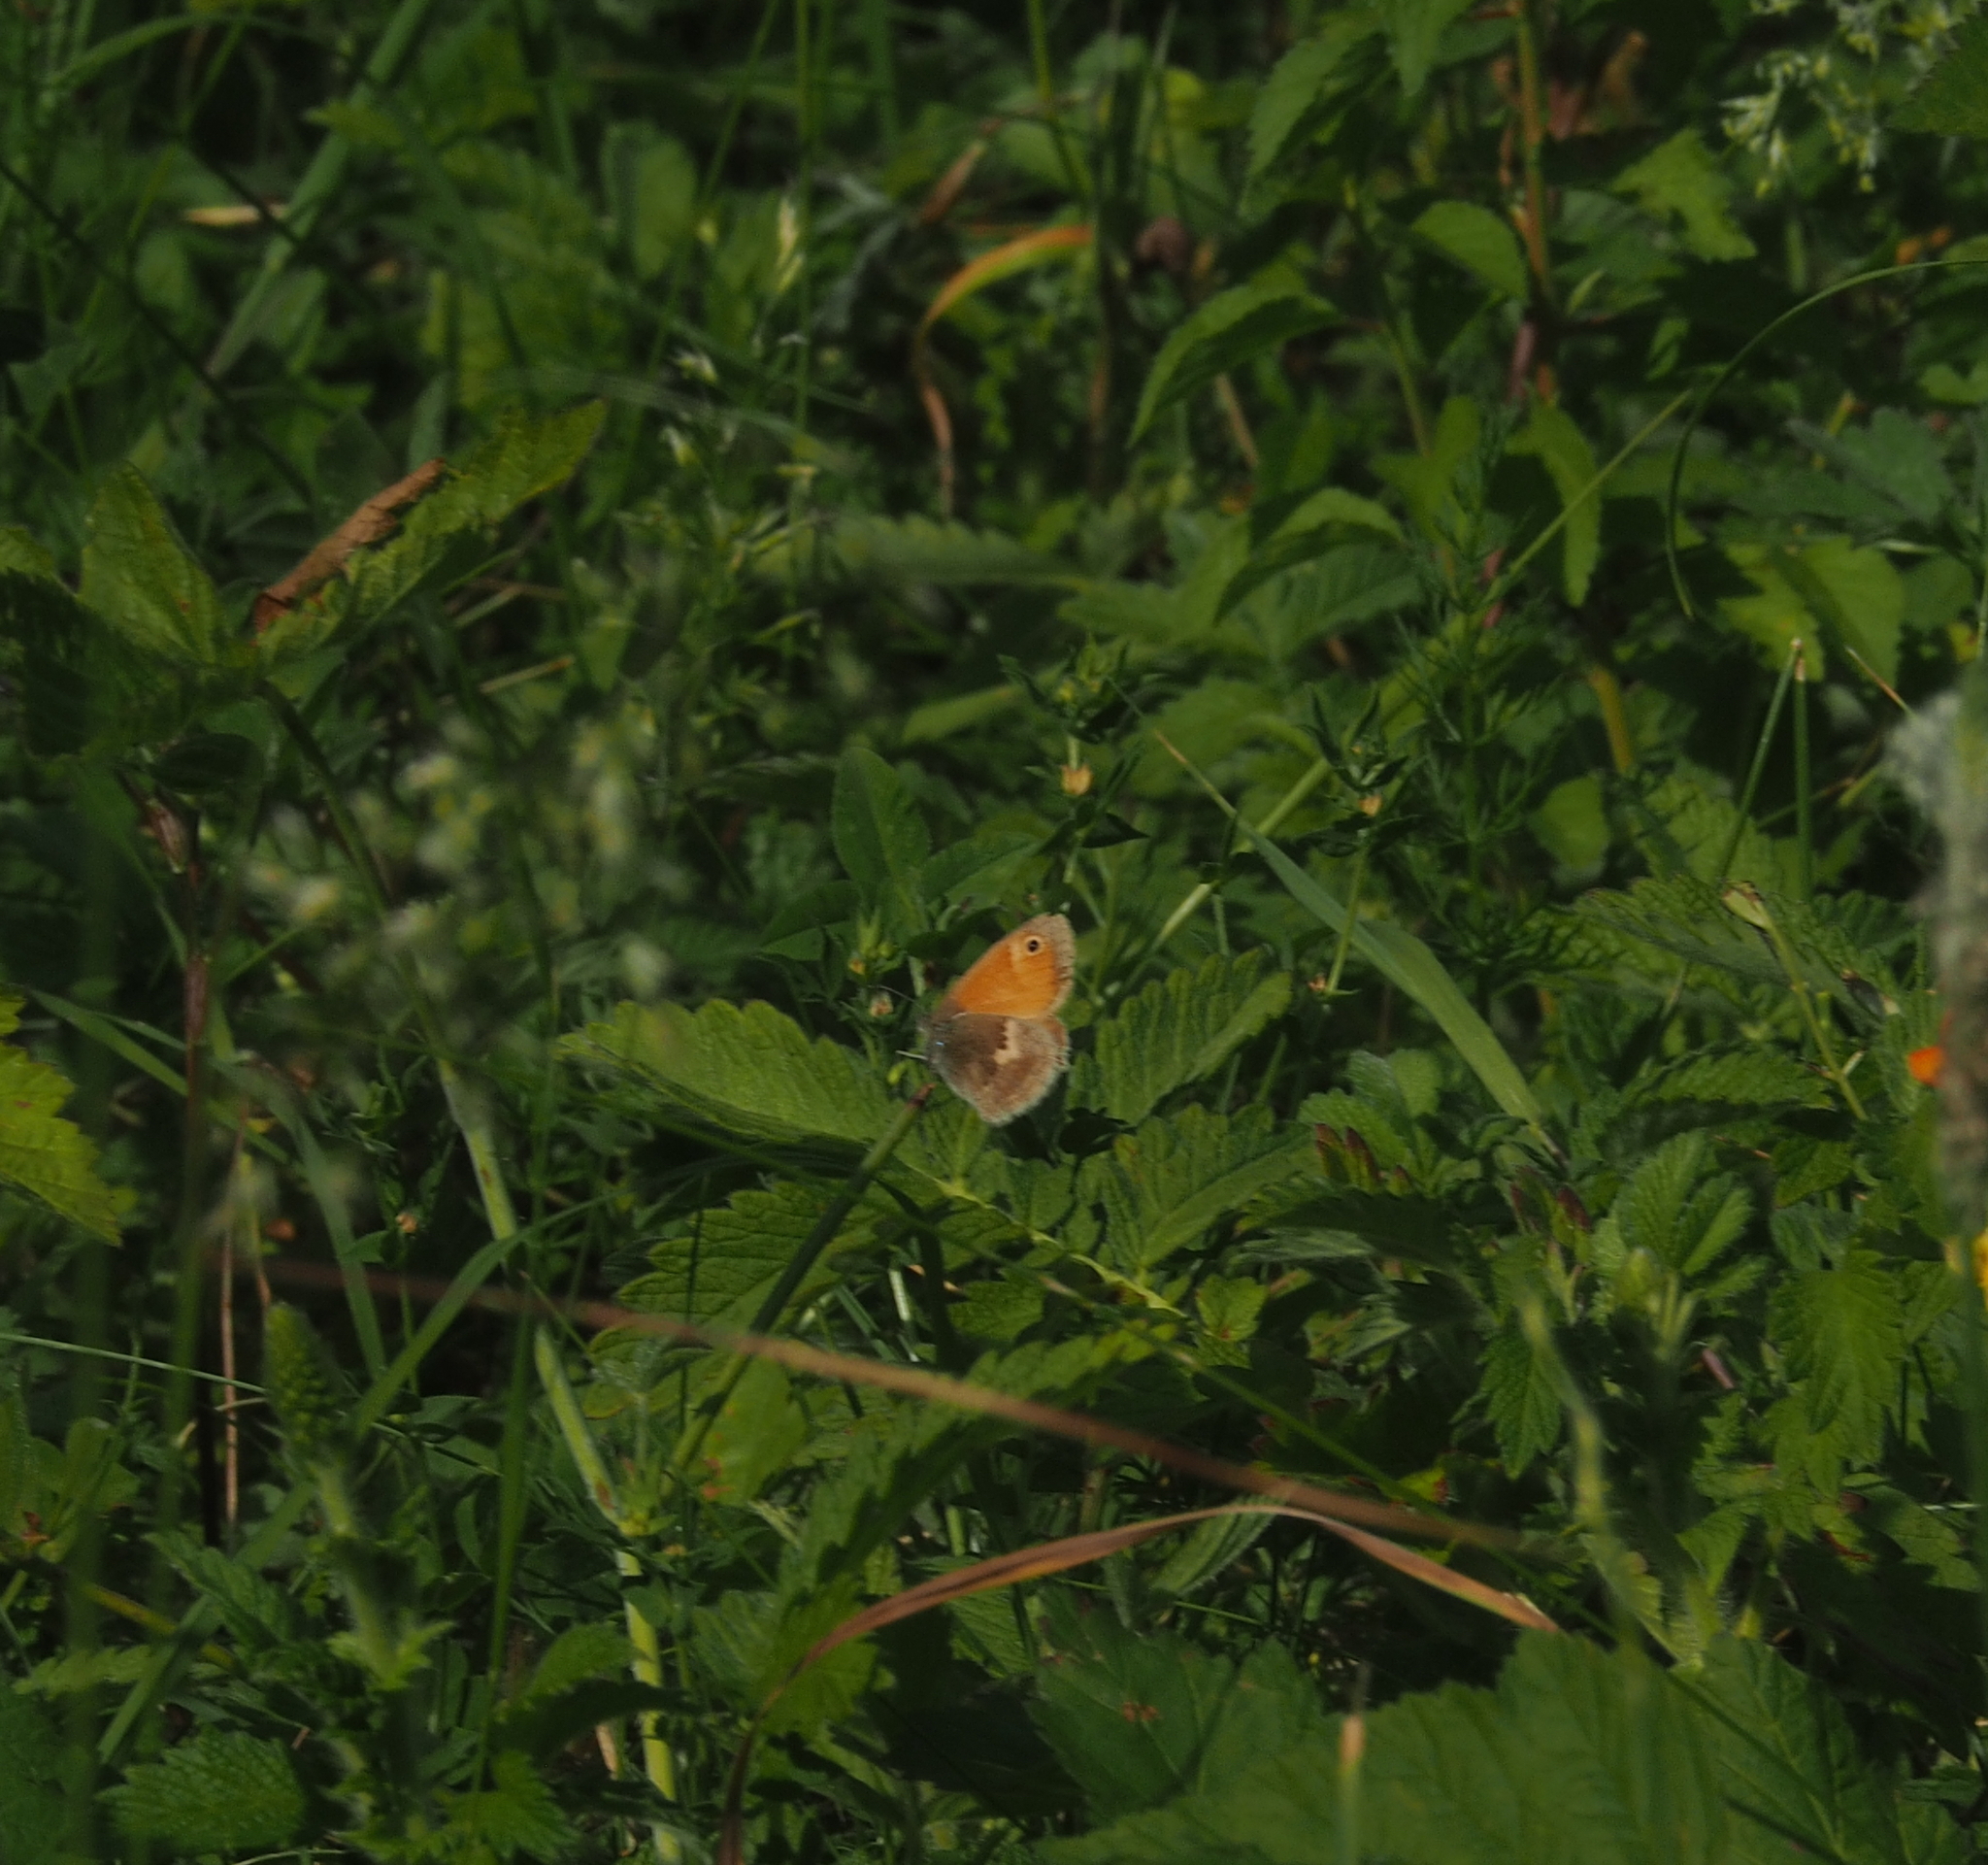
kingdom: Animalia
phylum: Arthropoda
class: Insecta
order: Lepidoptera
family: Nymphalidae
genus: Coenonympha
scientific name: Coenonympha pamphilus
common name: Small heath
